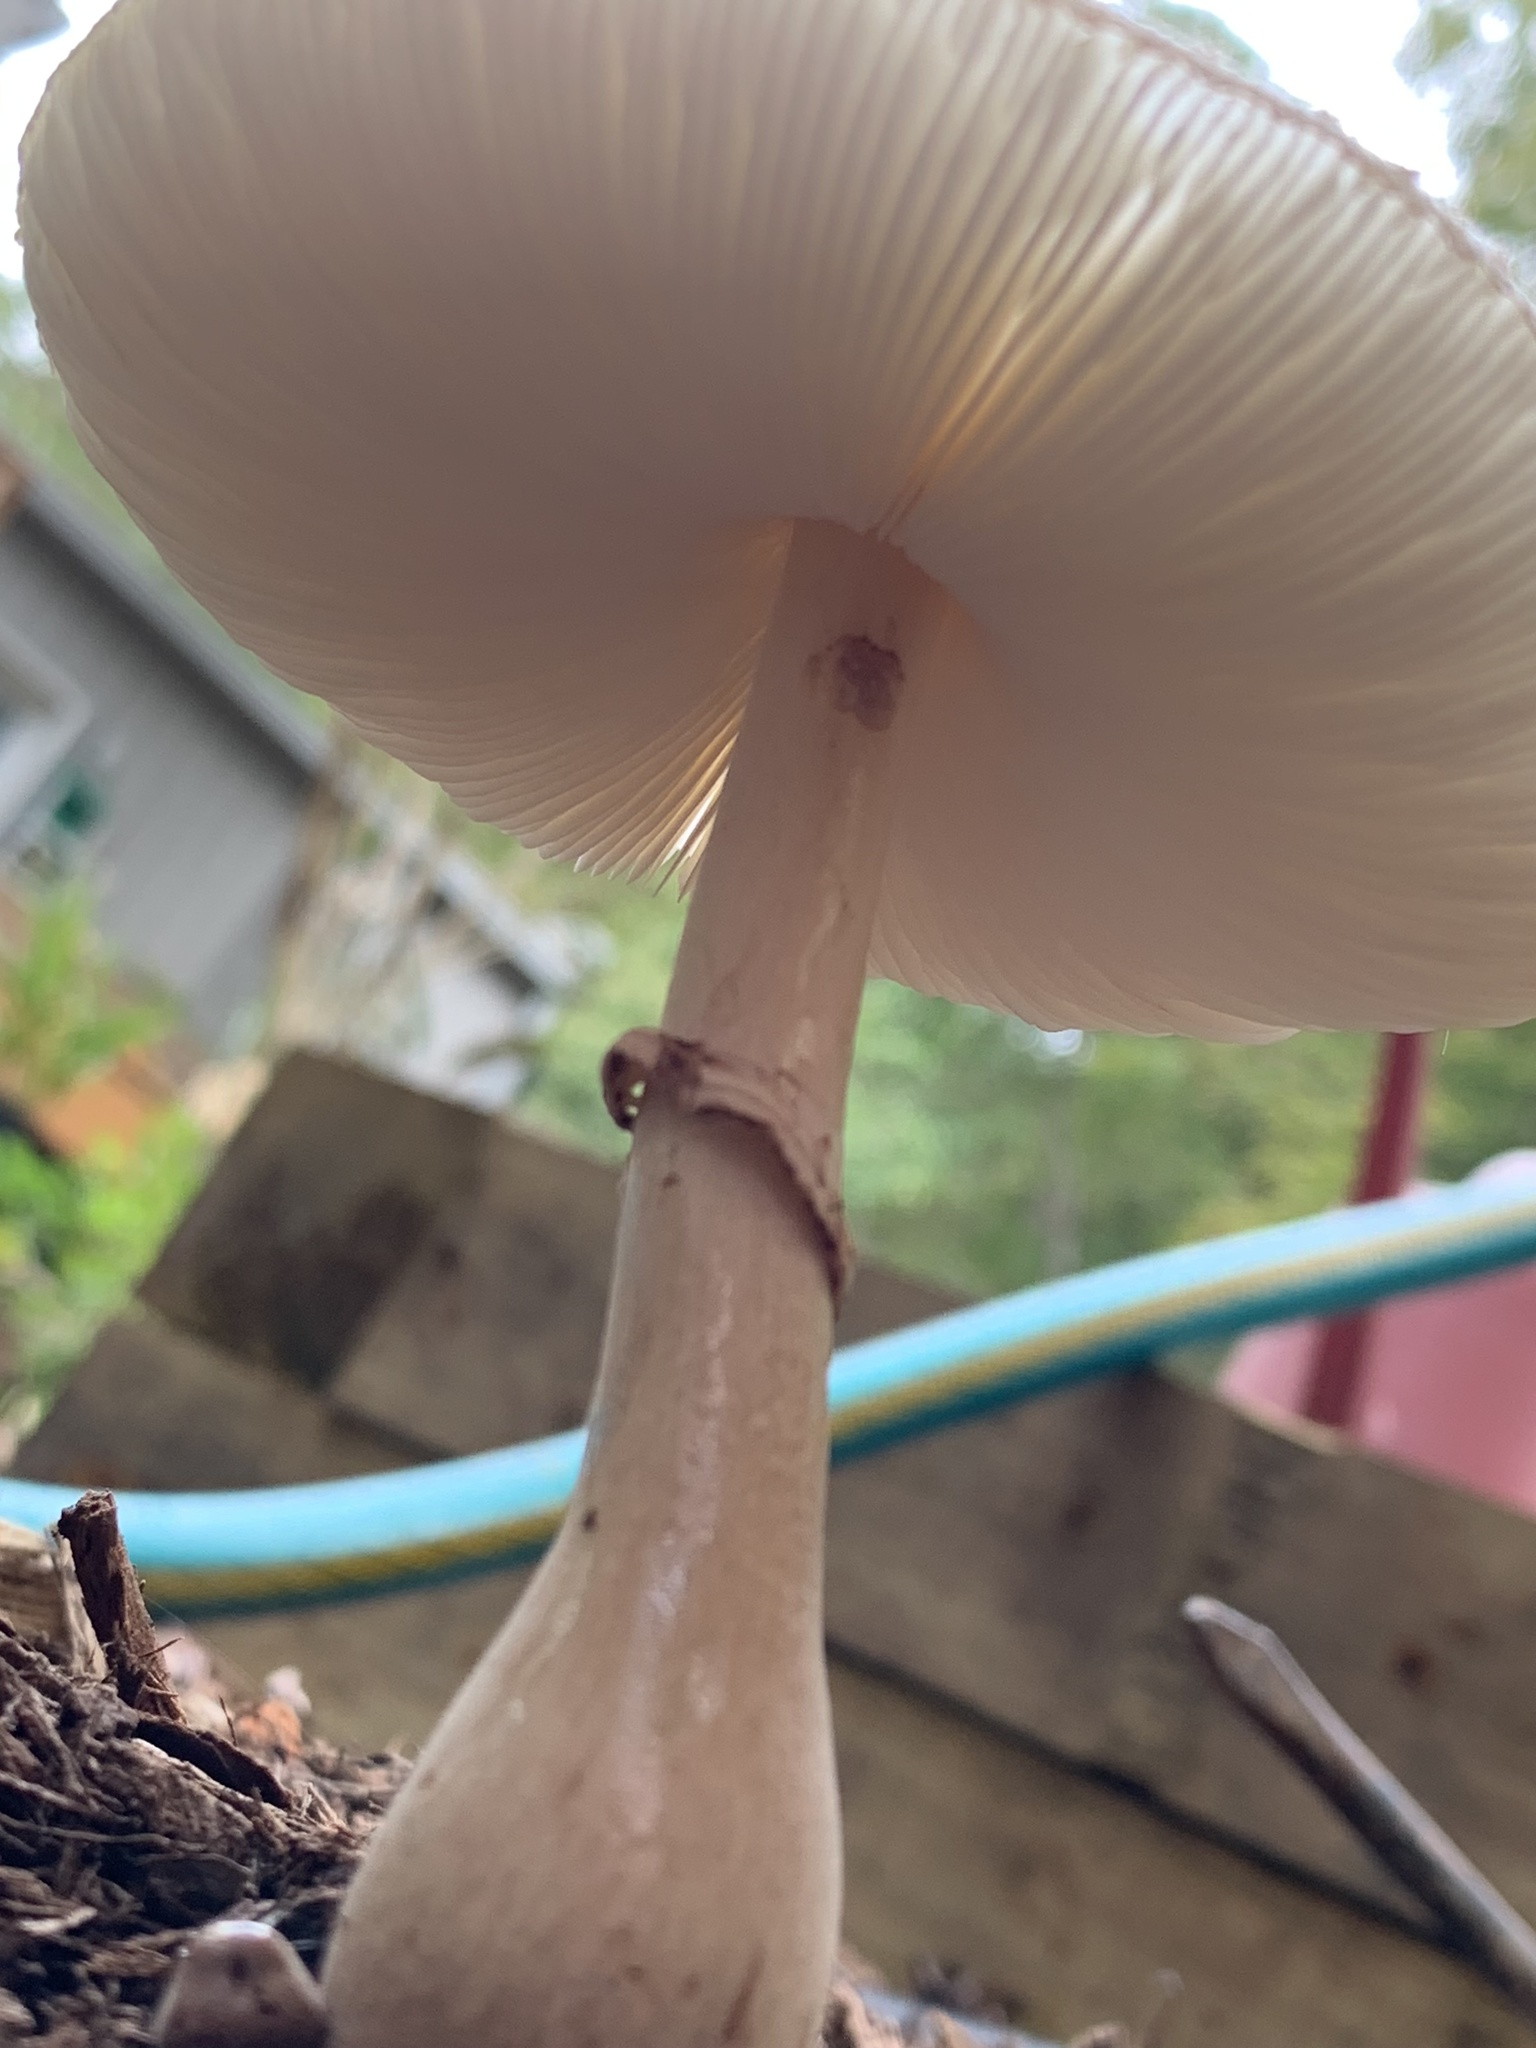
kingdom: Fungi
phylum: Basidiomycota
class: Agaricomycetes
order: Agaricales
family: Agaricaceae
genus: Leucoagaricus
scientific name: Leucoagaricus americanus
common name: Reddening lepiota
